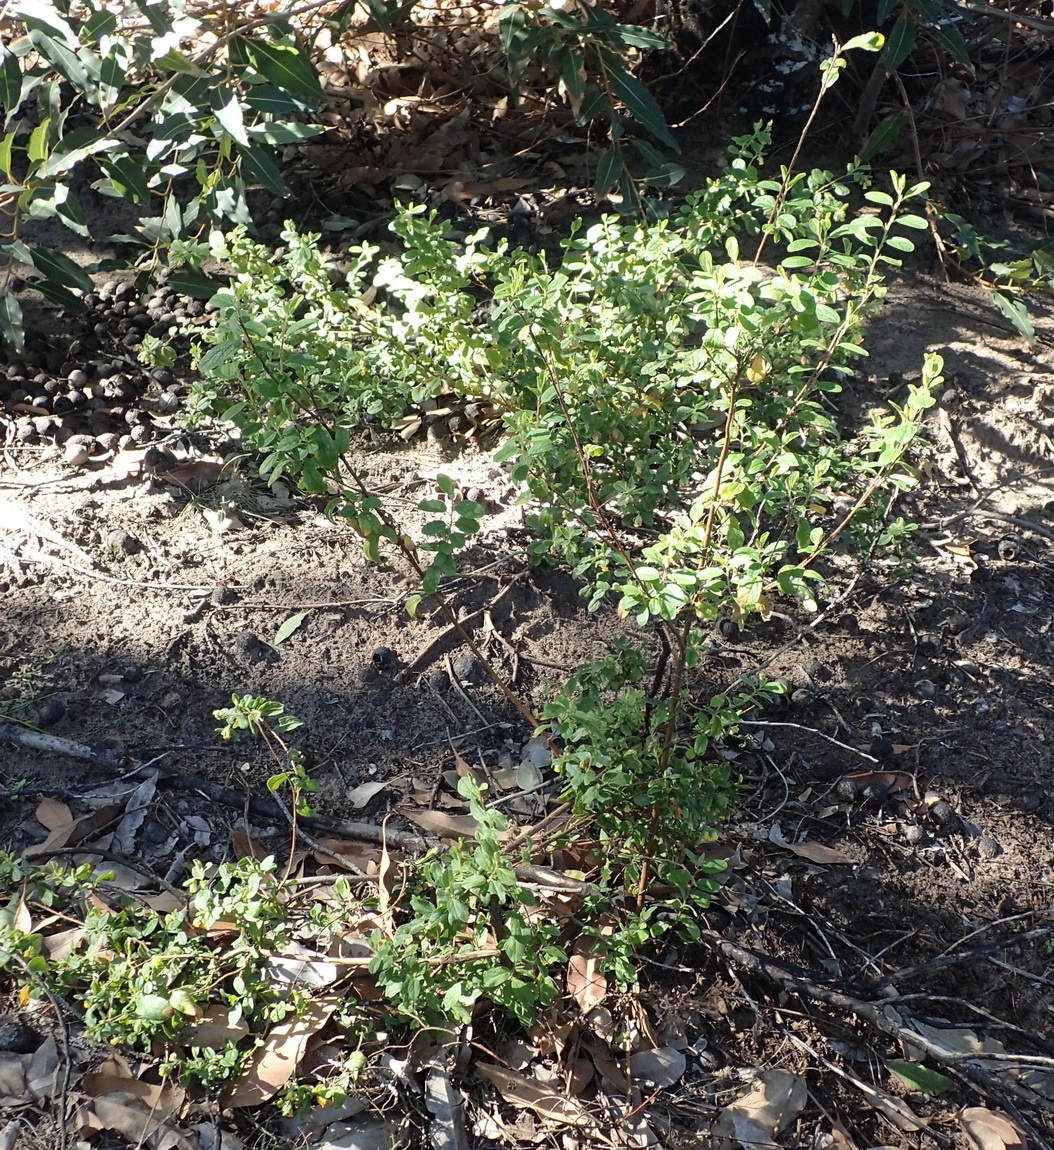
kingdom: Plantae
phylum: Tracheophyta
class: Magnoliopsida
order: Malvales
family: Malvaceae
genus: Hermannia
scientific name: Hermannia salviifolia
